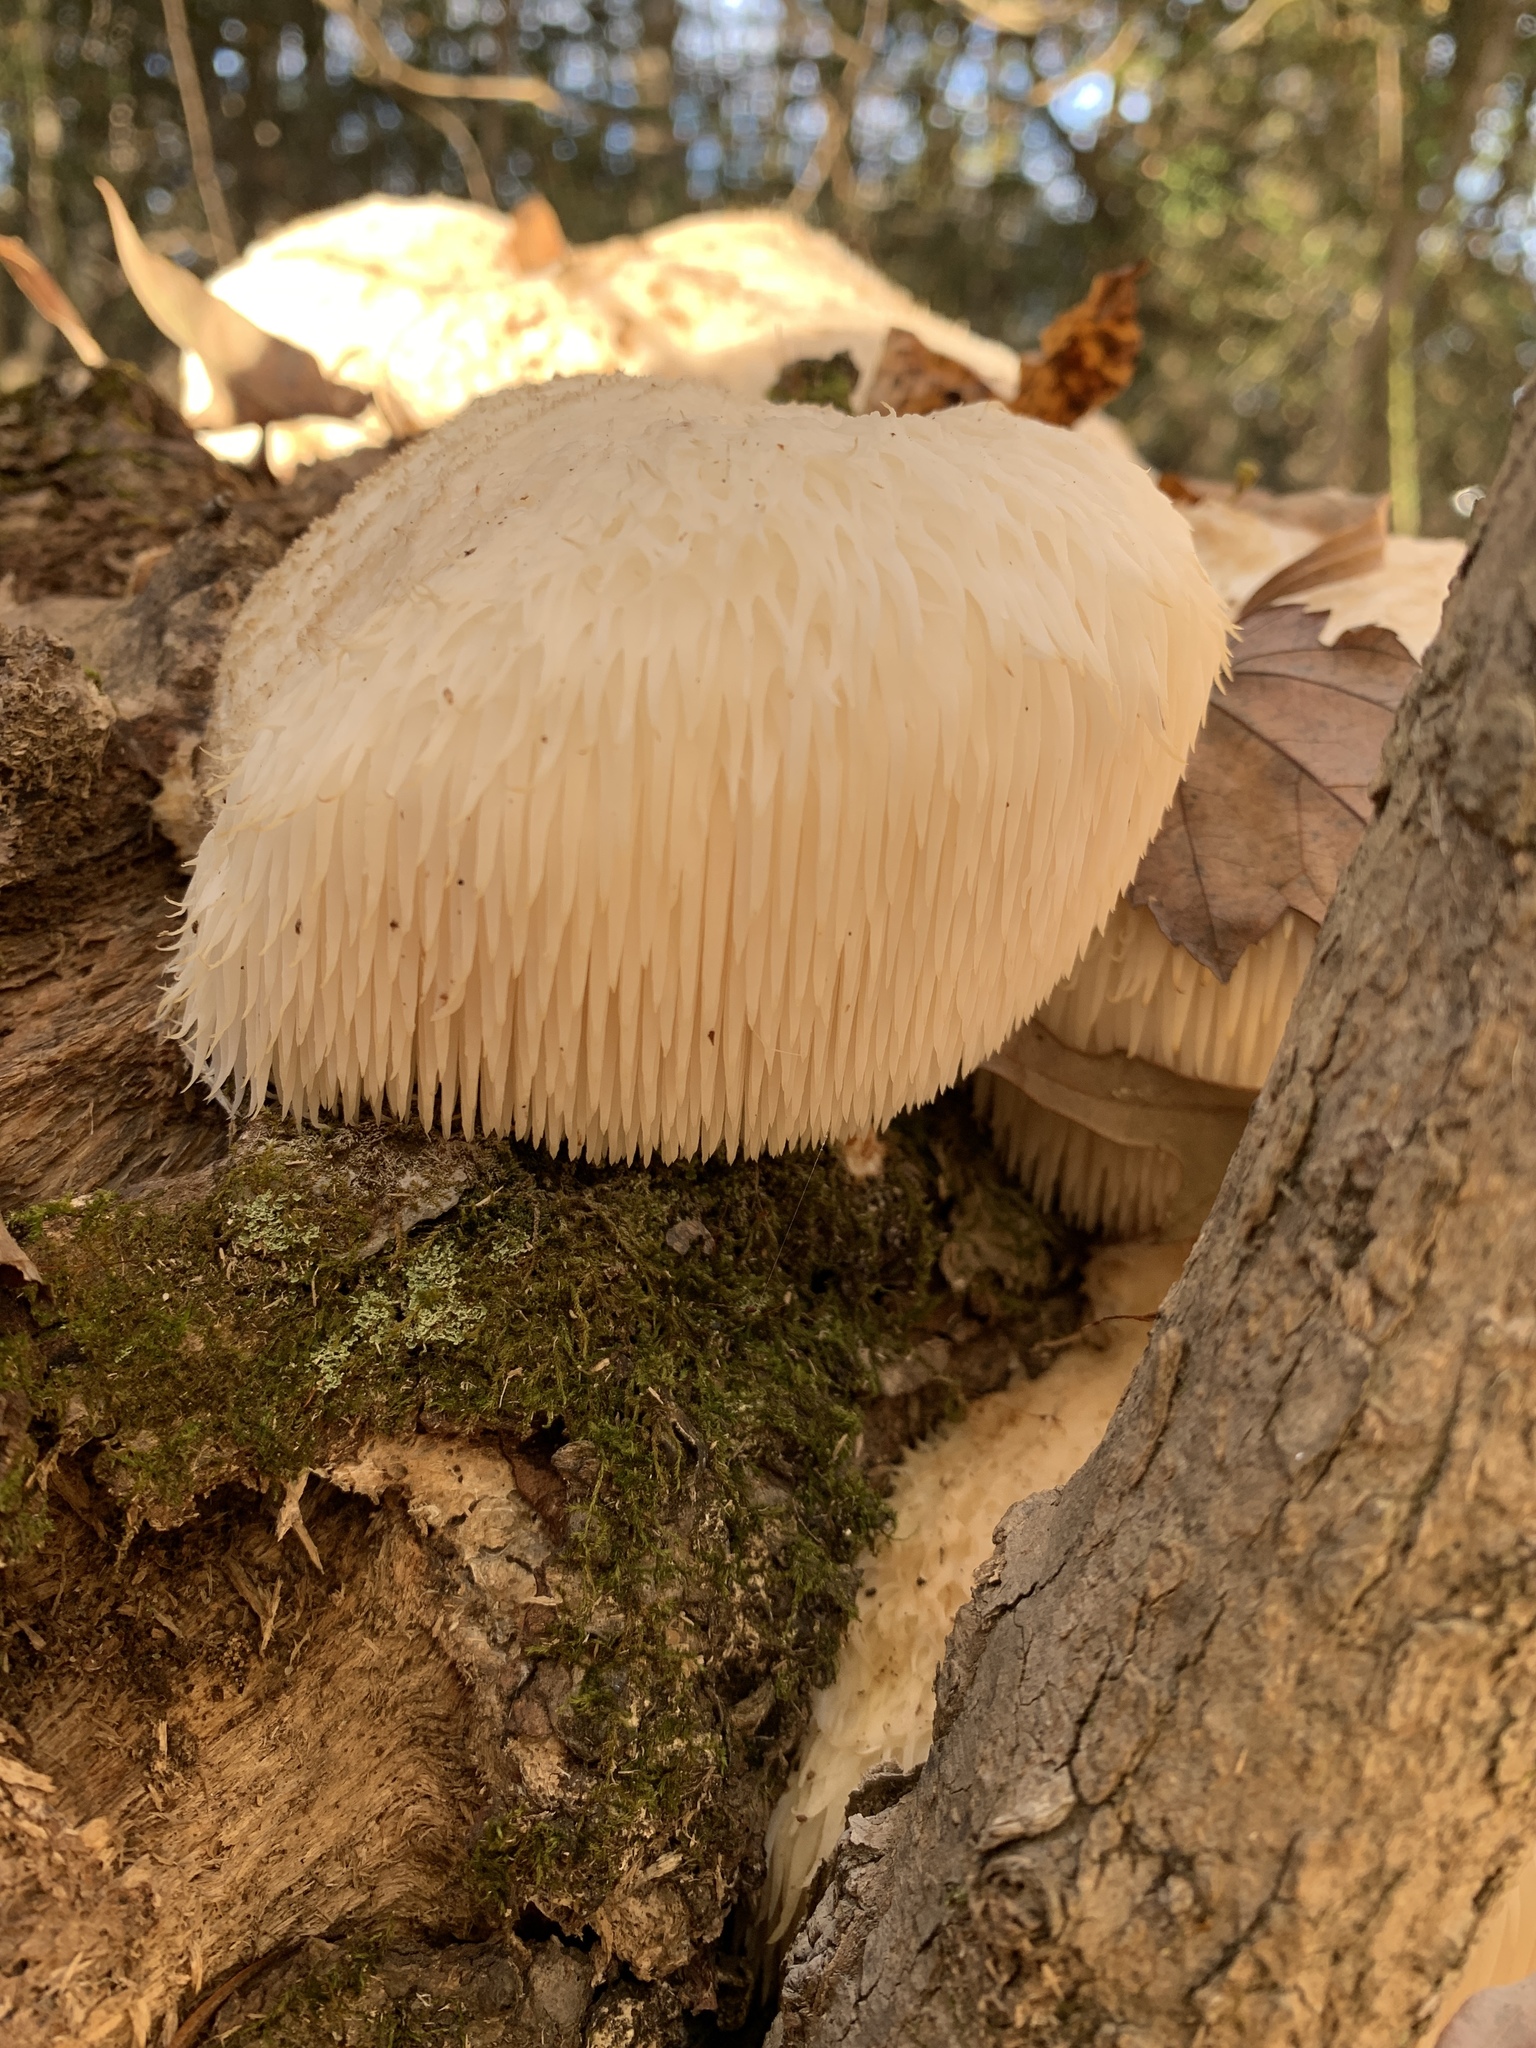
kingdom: Fungi
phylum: Basidiomycota
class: Agaricomycetes
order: Russulales
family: Hericiaceae
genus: Hericium
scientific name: Hericium erinaceus
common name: Bearded tooth
